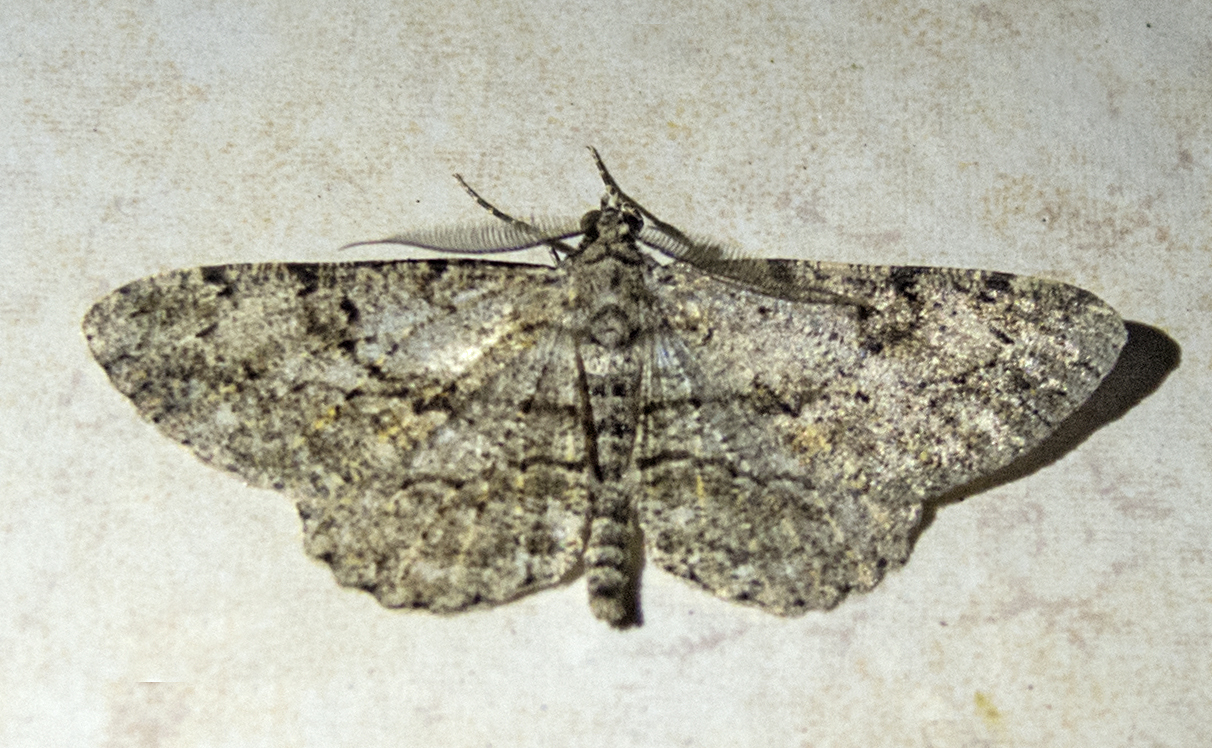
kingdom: Animalia
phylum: Arthropoda
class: Insecta
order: Lepidoptera
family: Geometridae
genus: Peribatodes
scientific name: Peribatodes rhomboidaria
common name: Willow beauty
